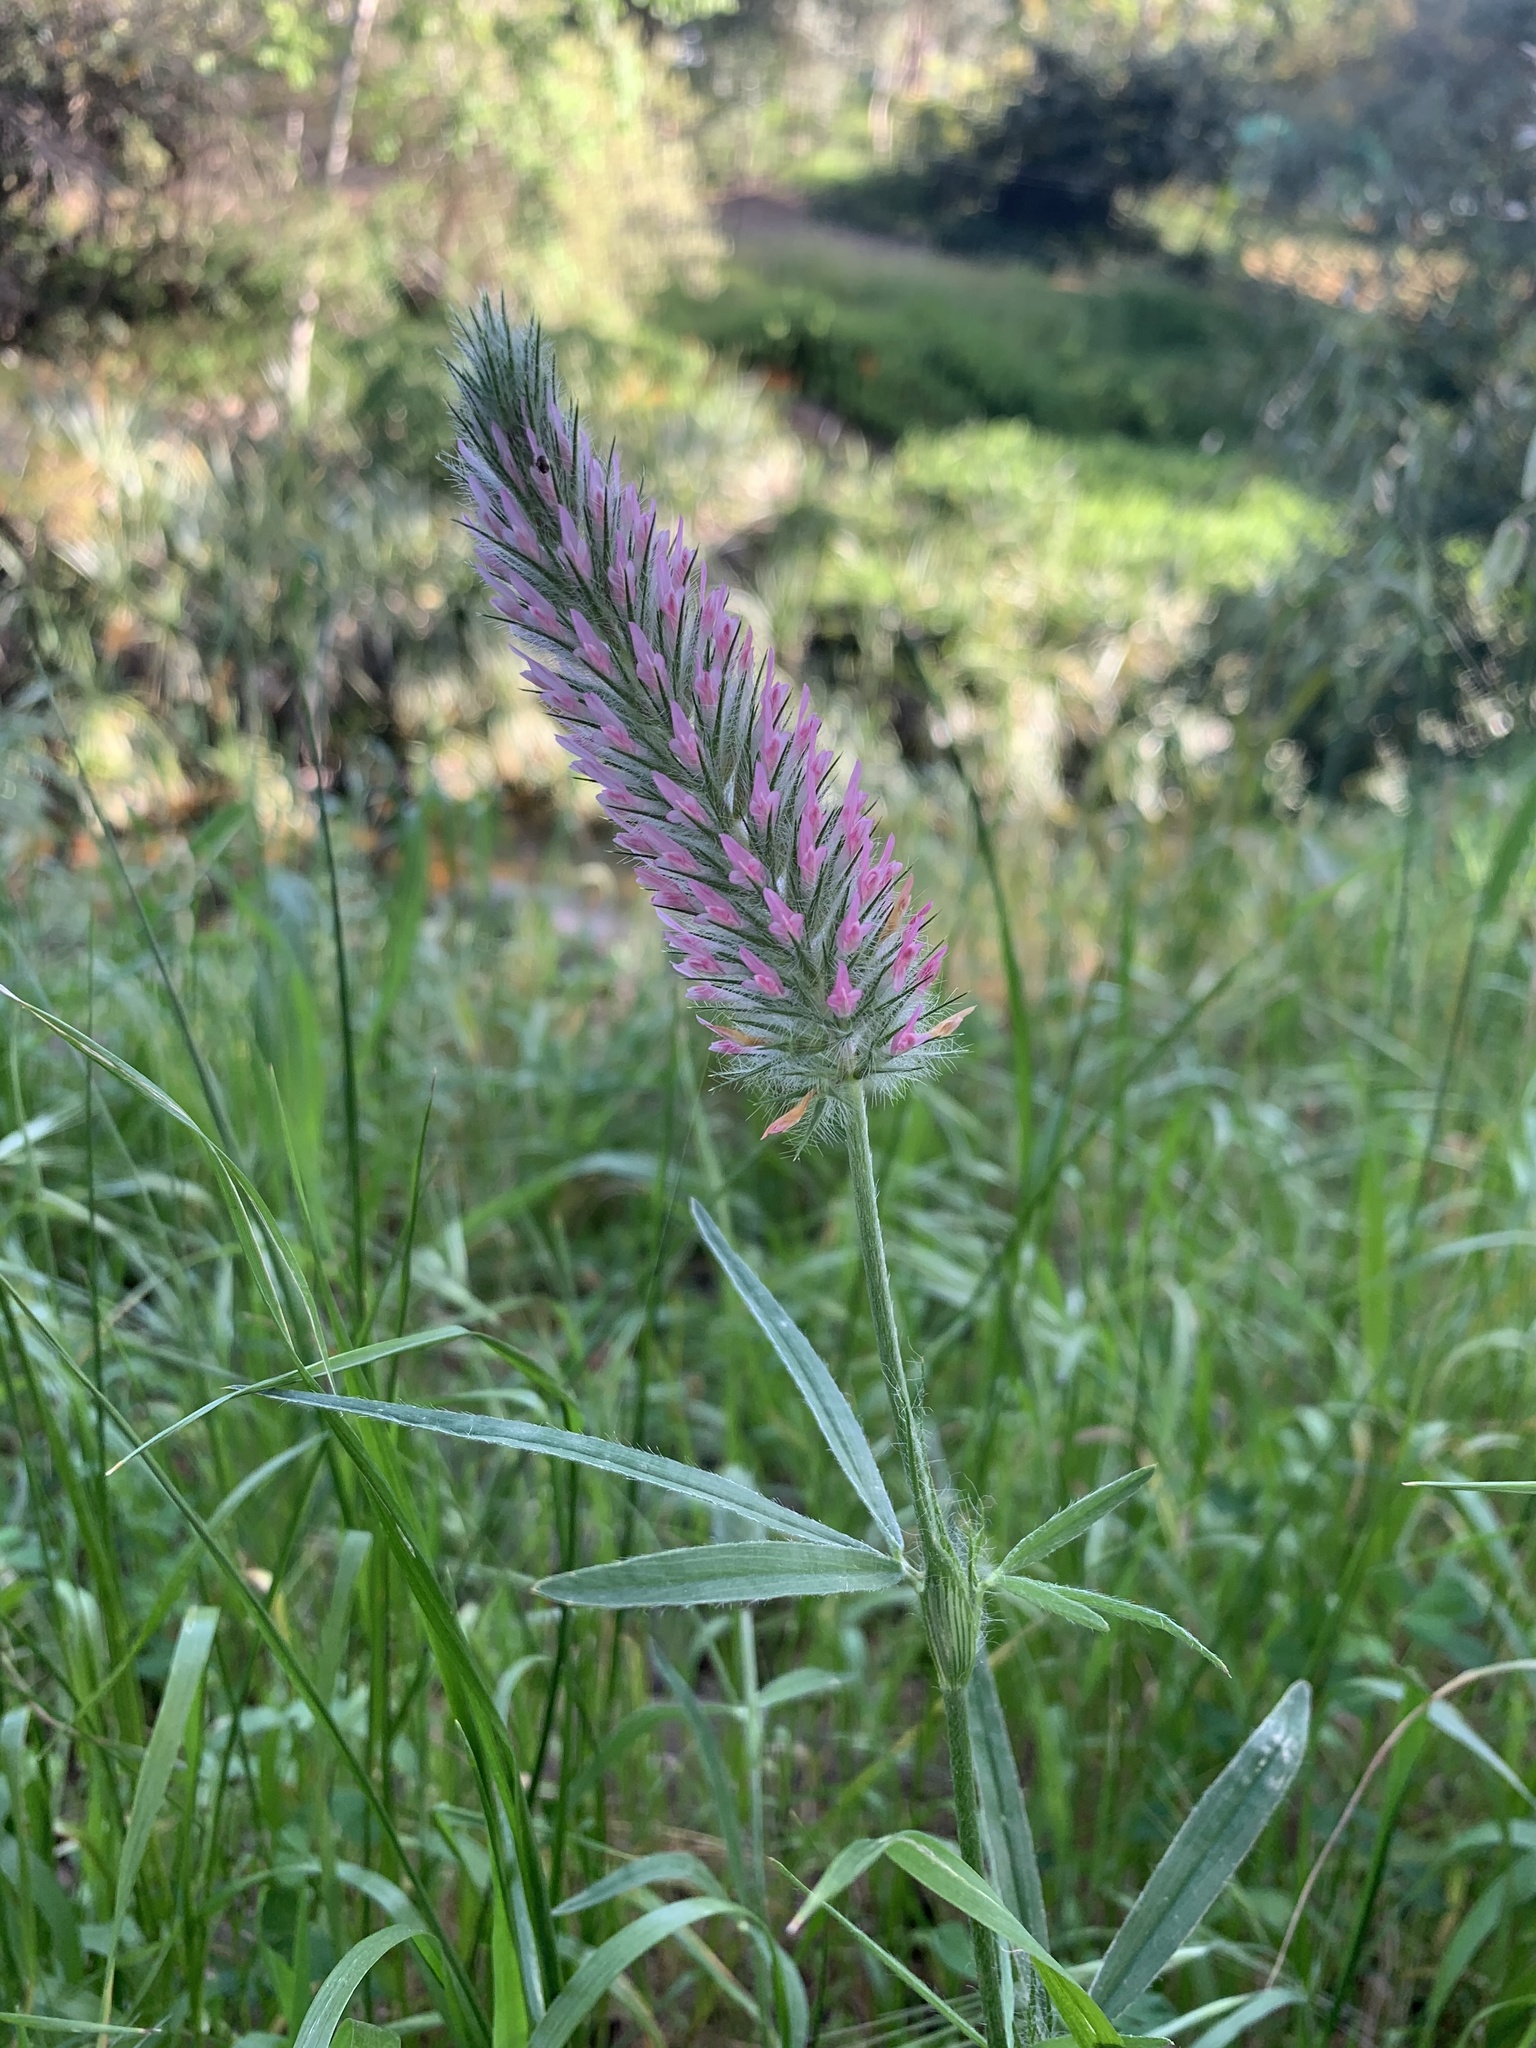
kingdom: Plantae
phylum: Tracheophyta
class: Magnoliopsida
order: Fabales
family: Fabaceae
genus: Trifolium
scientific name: Trifolium angustifolium
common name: Narrow clover
